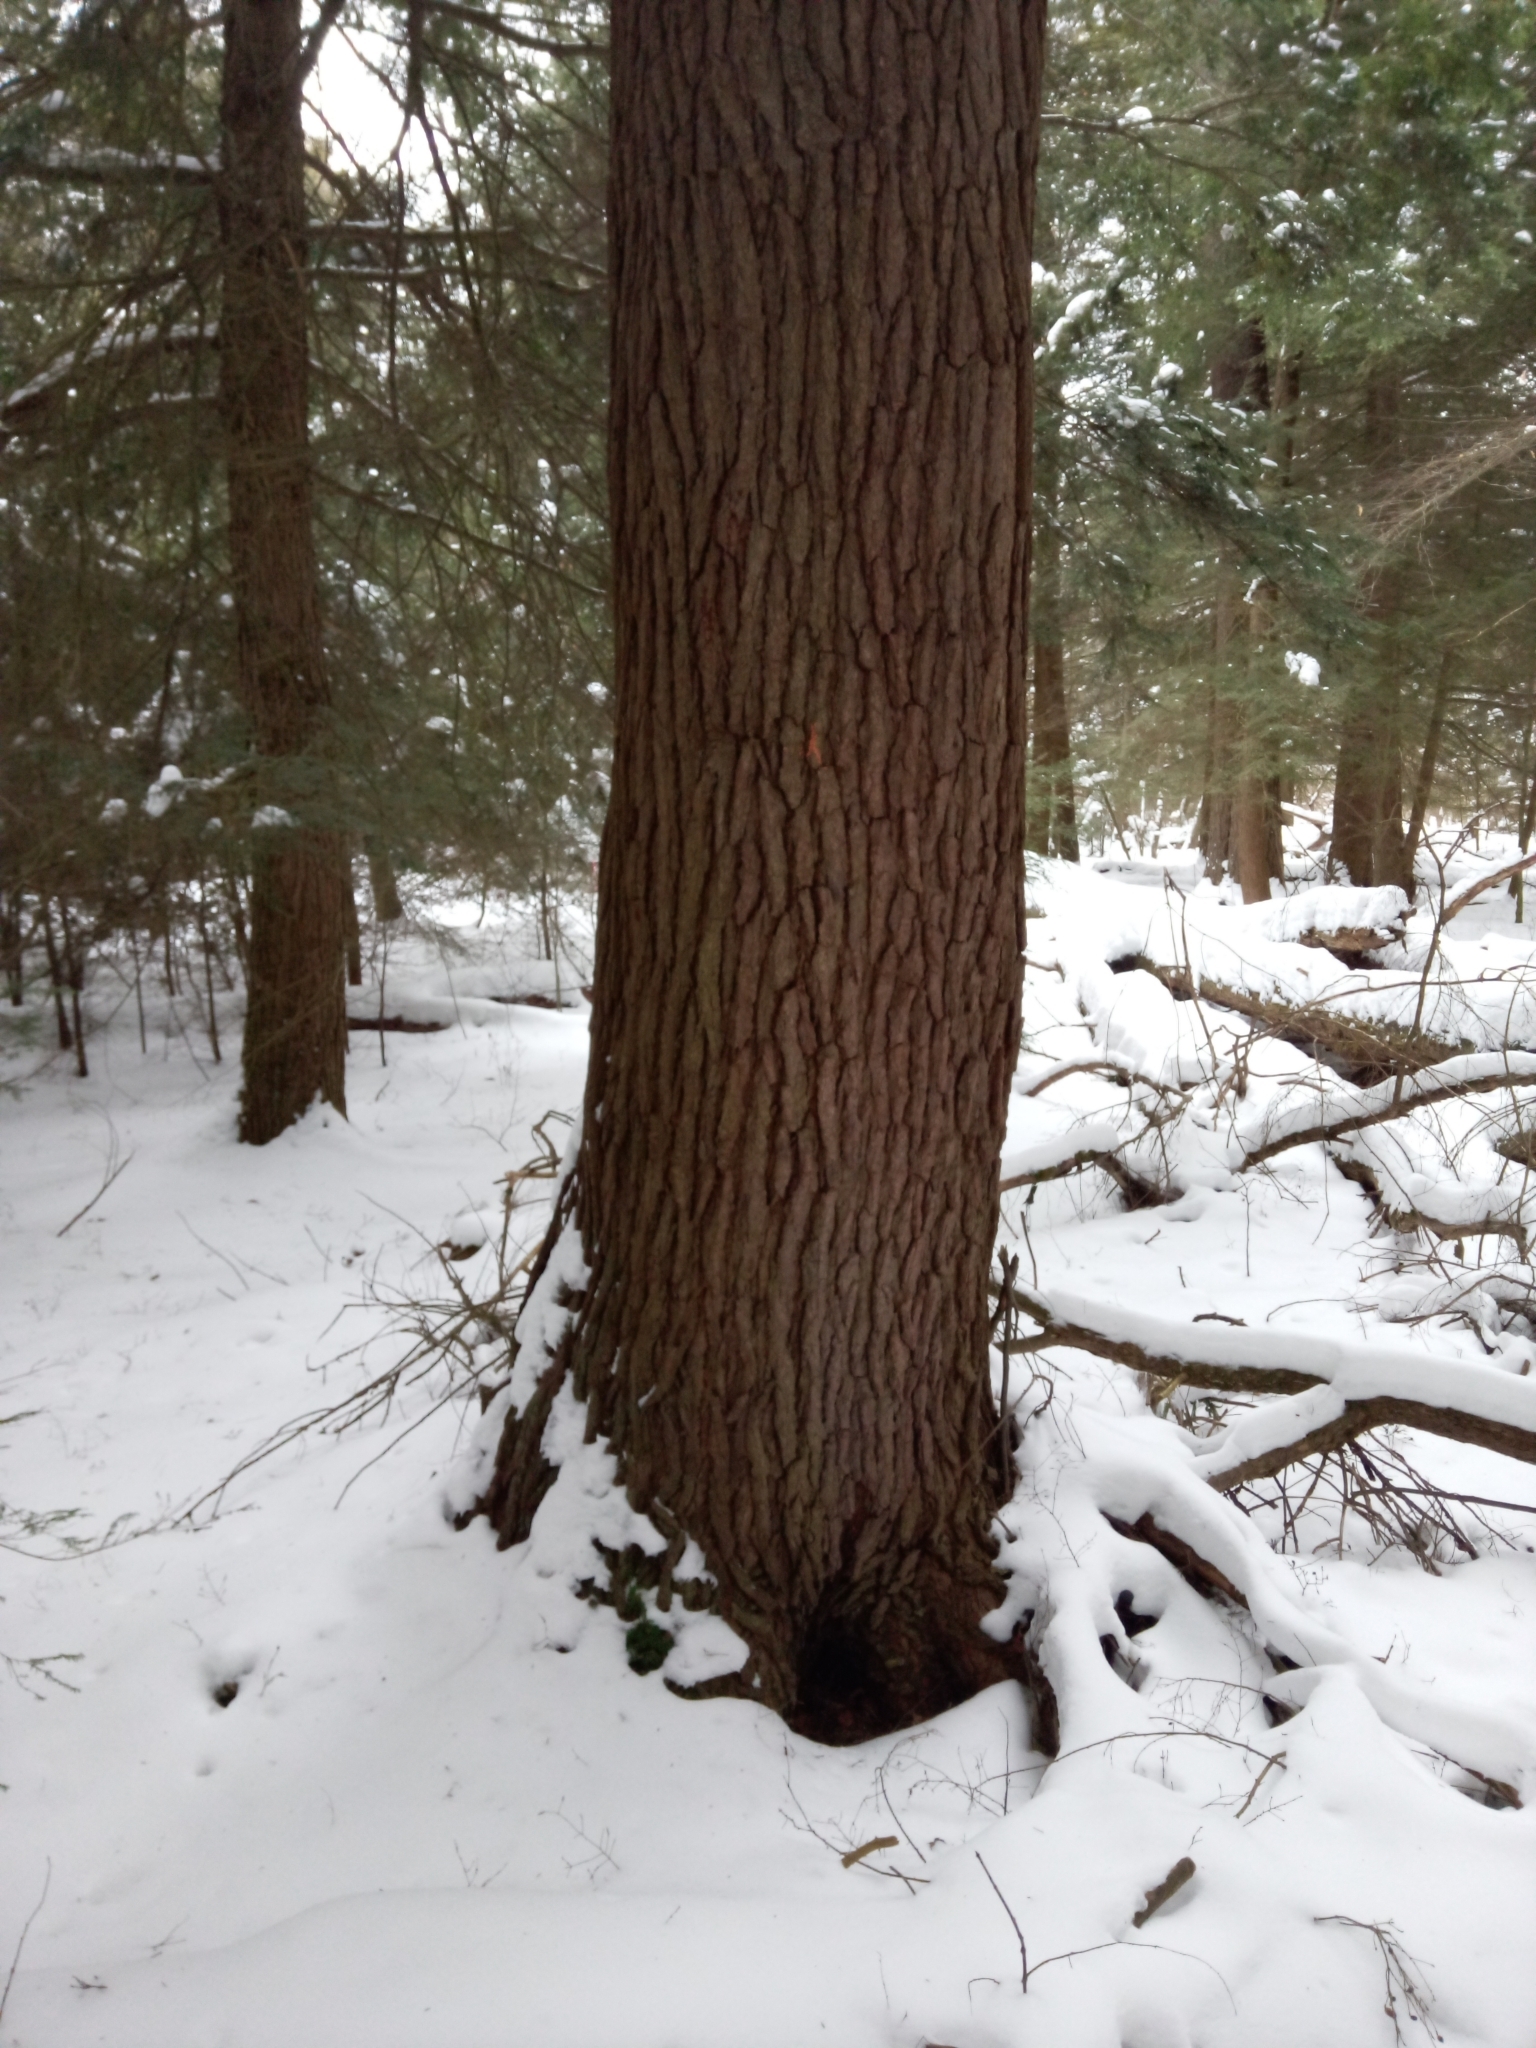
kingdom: Plantae
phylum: Tracheophyta
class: Pinopsida
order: Pinales
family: Pinaceae
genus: Tsuga
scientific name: Tsuga canadensis
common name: Eastern hemlock
